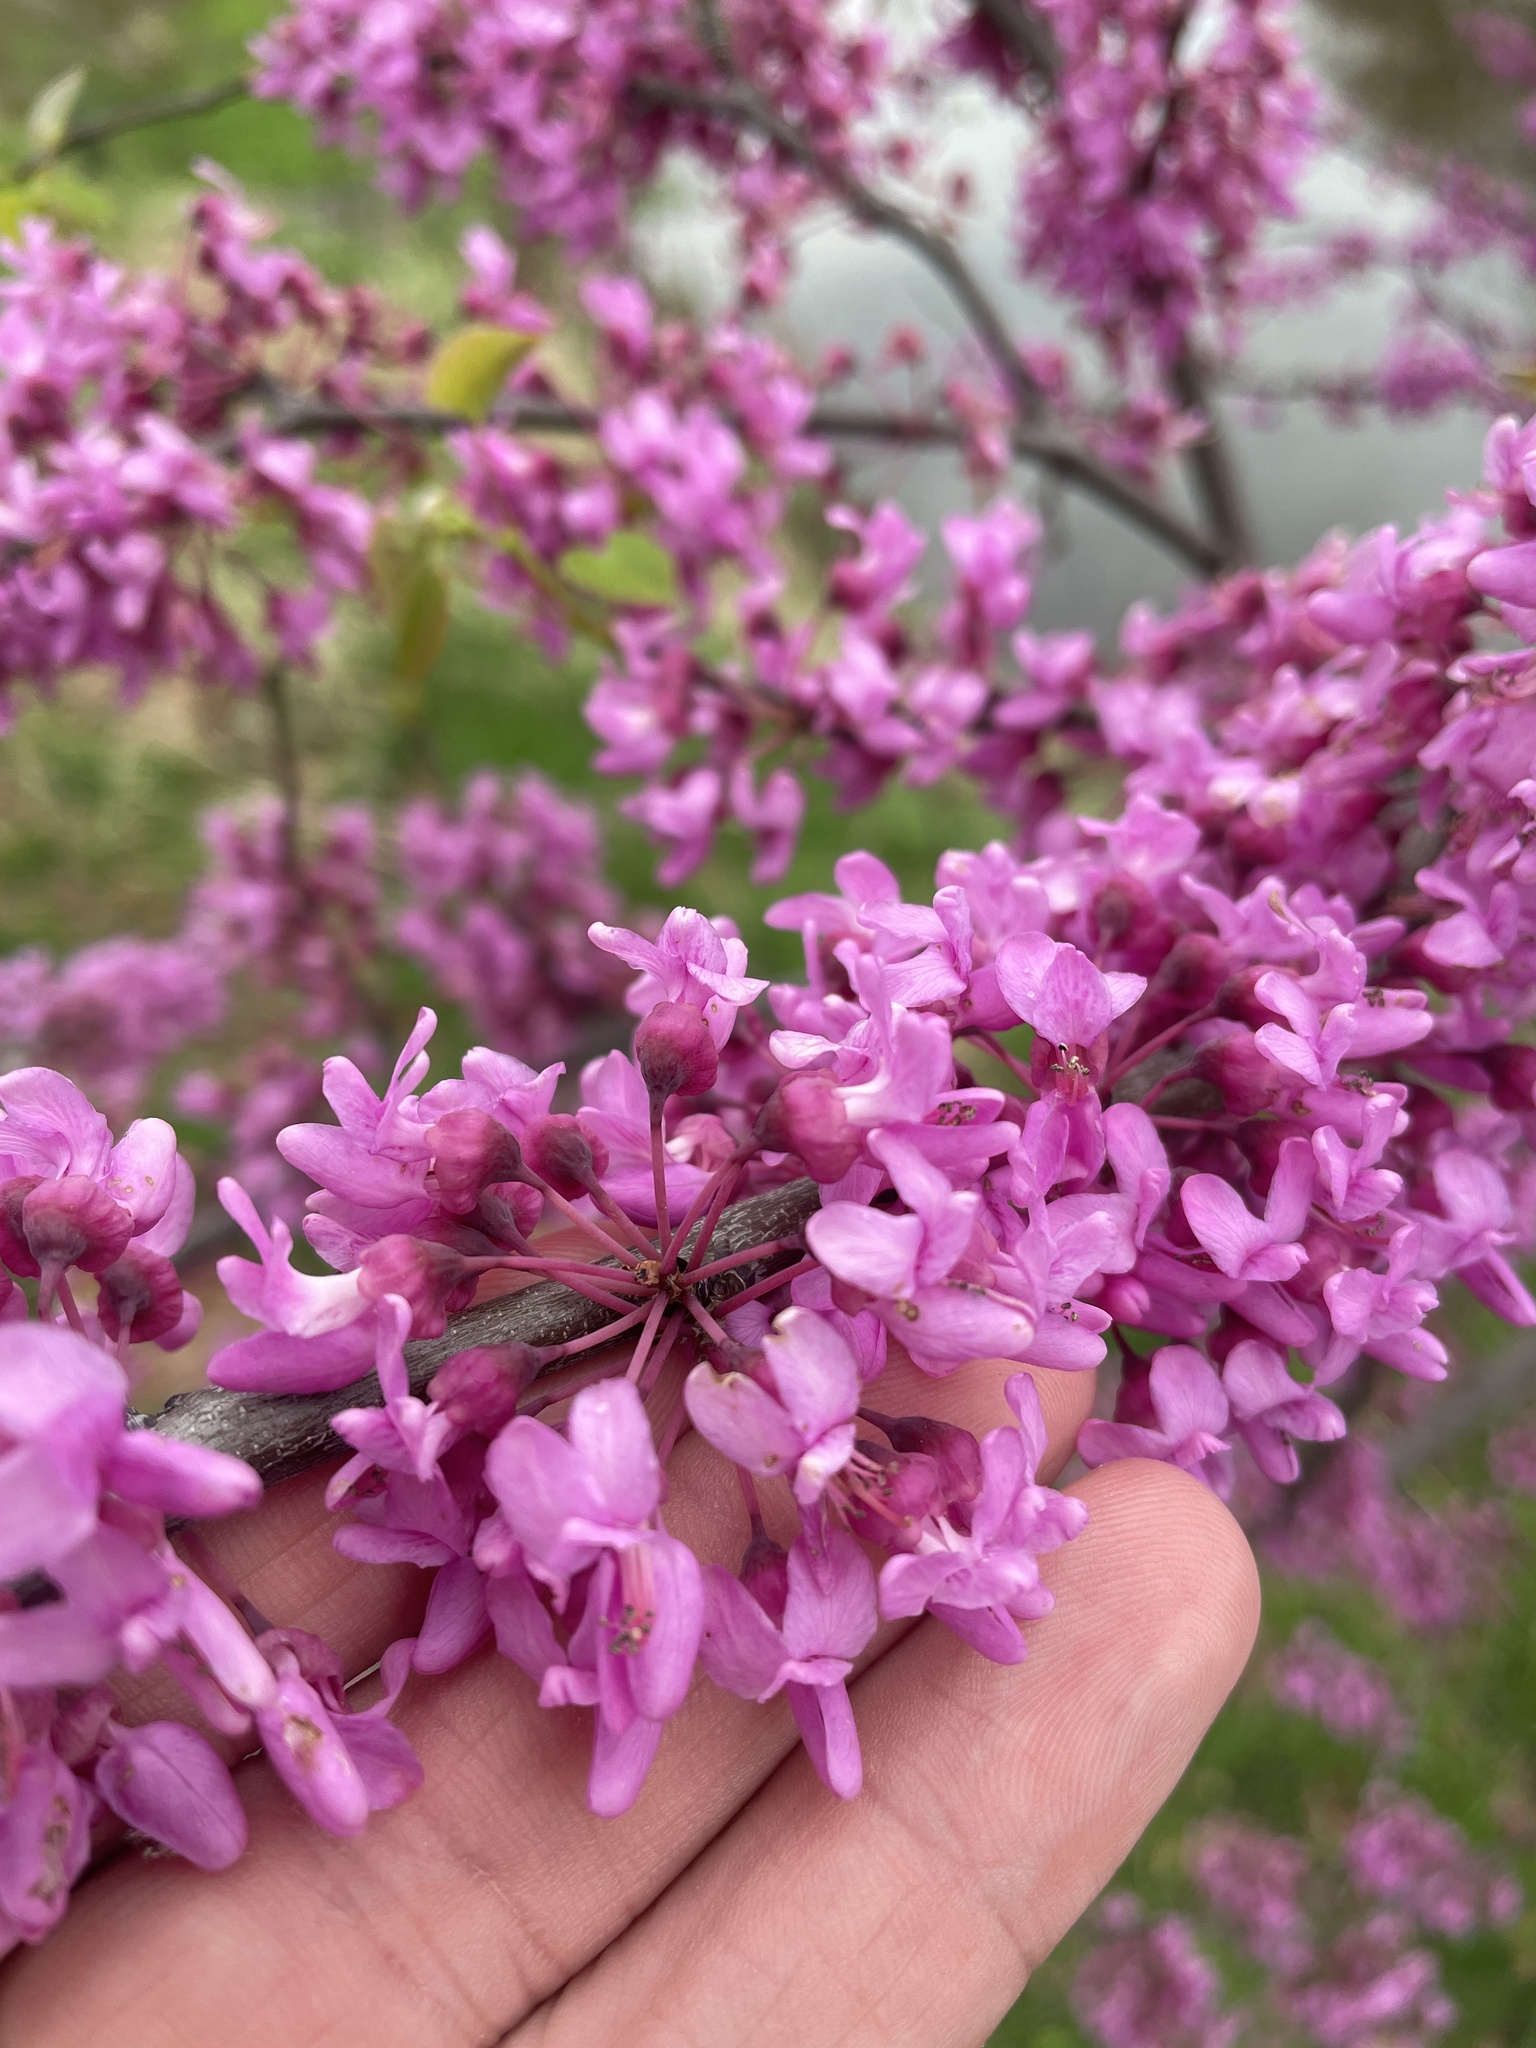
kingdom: Plantae
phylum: Tracheophyta
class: Magnoliopsida
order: Fabales
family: Fabaceae
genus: Cercis
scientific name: Cercis canadensis
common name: Eastern redbud
